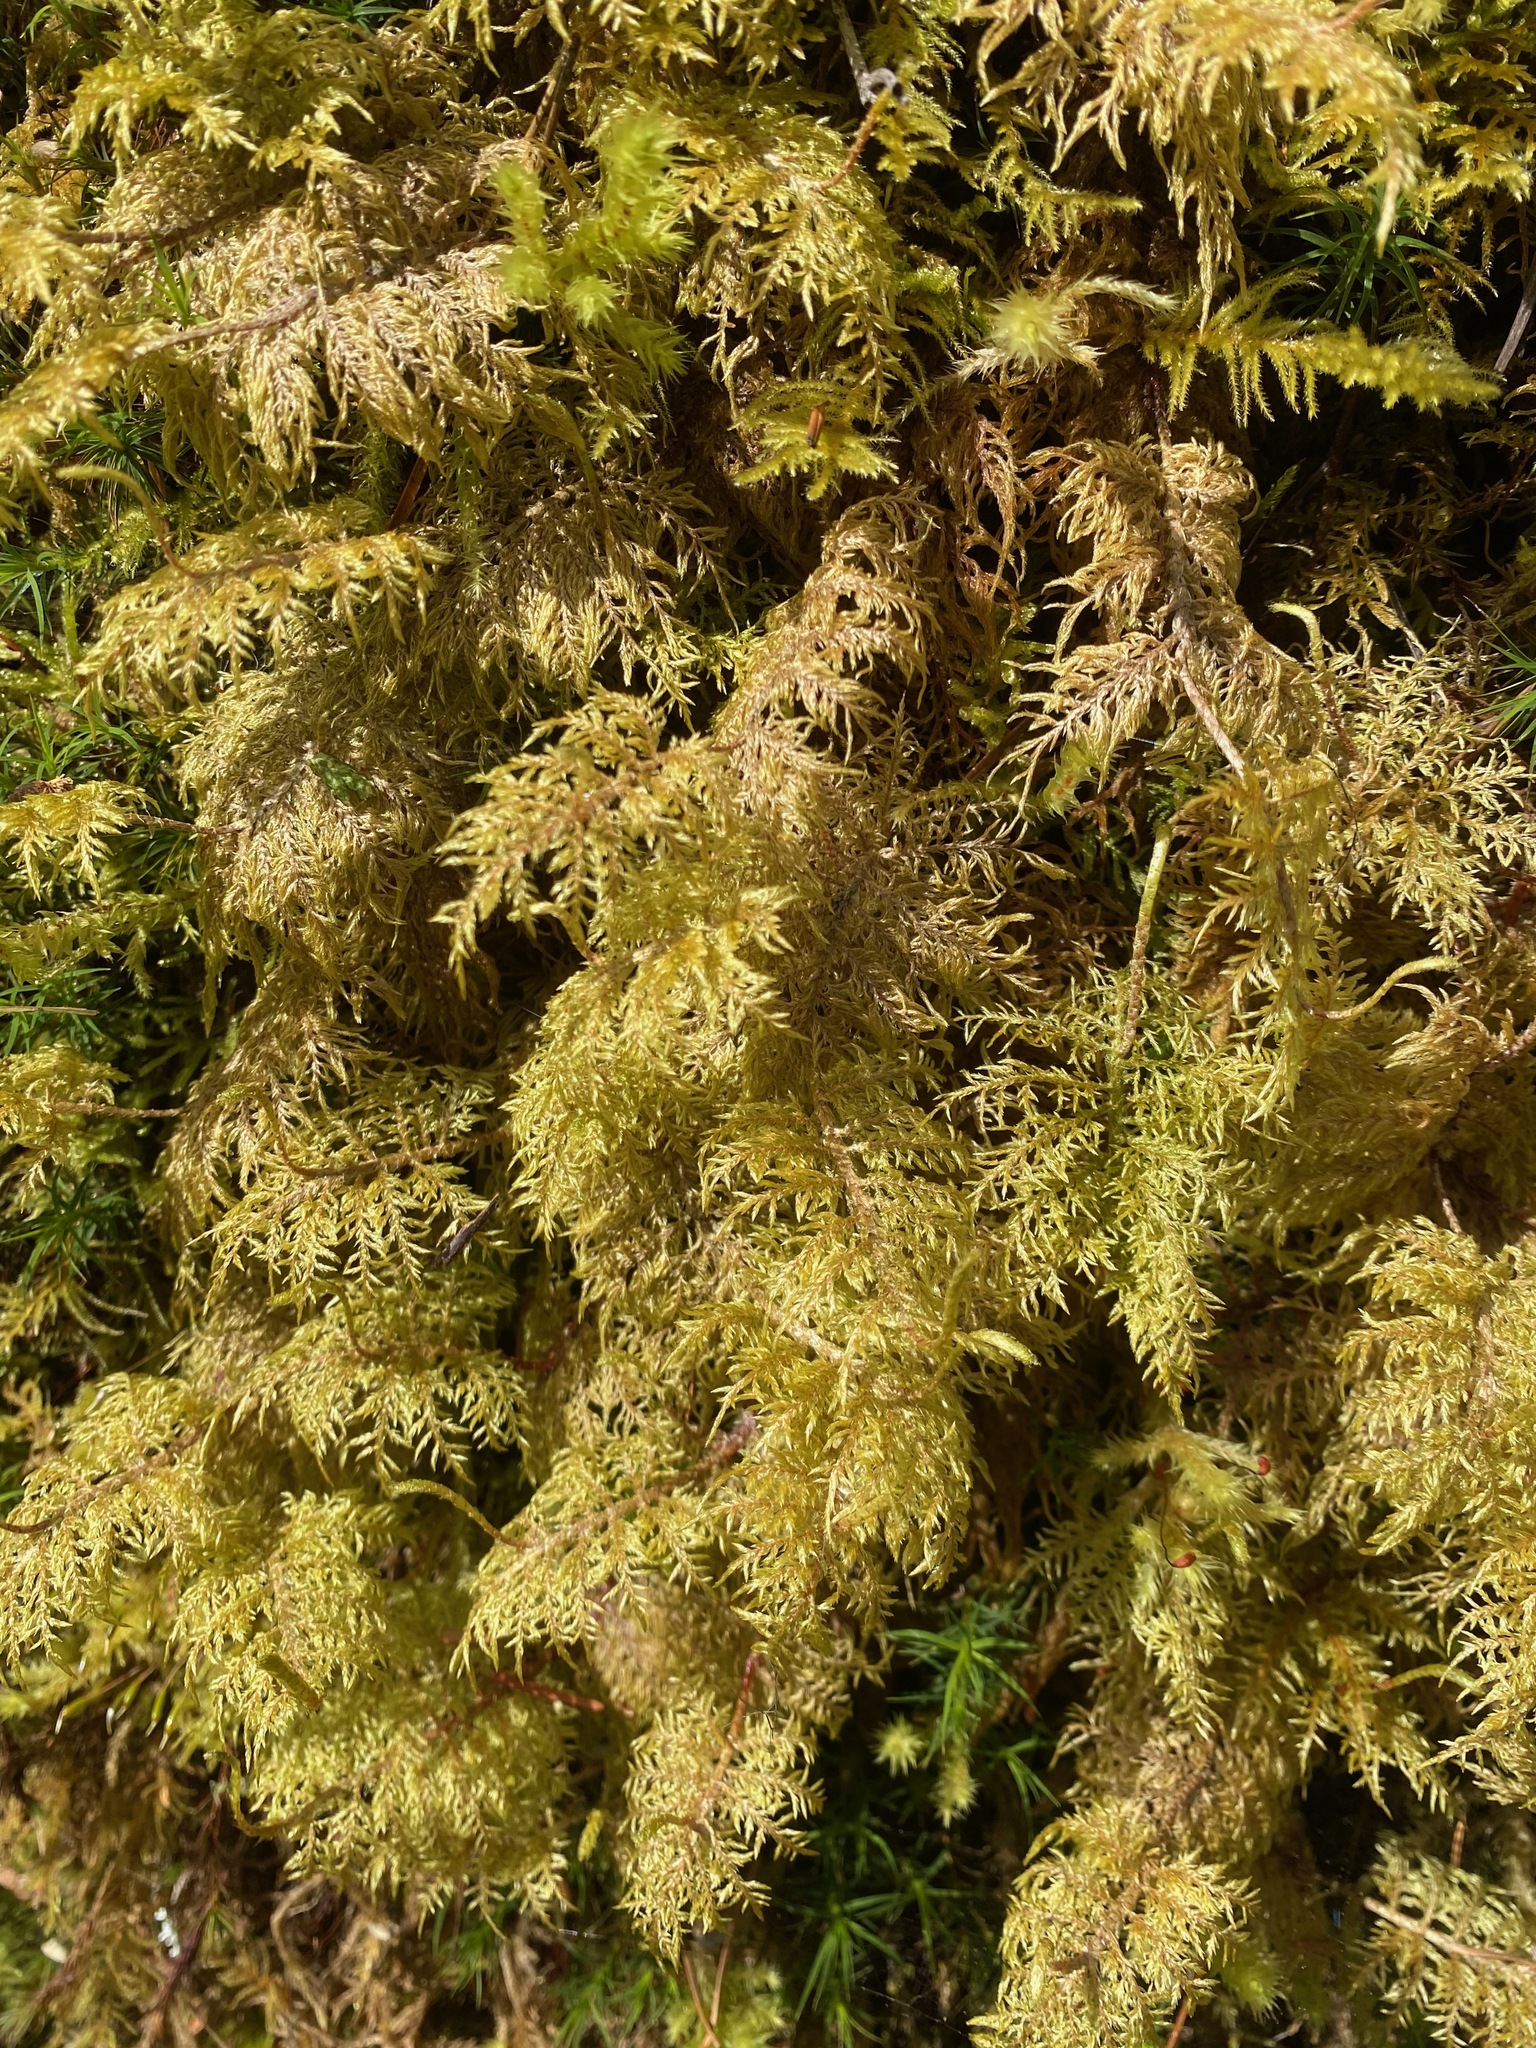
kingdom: Plantae
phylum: Bryophyta
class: Bryopsida
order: Hypnales
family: Hylocomiaceae
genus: Hylocomium
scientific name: Hylocomium splendens
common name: Stairstep moss
